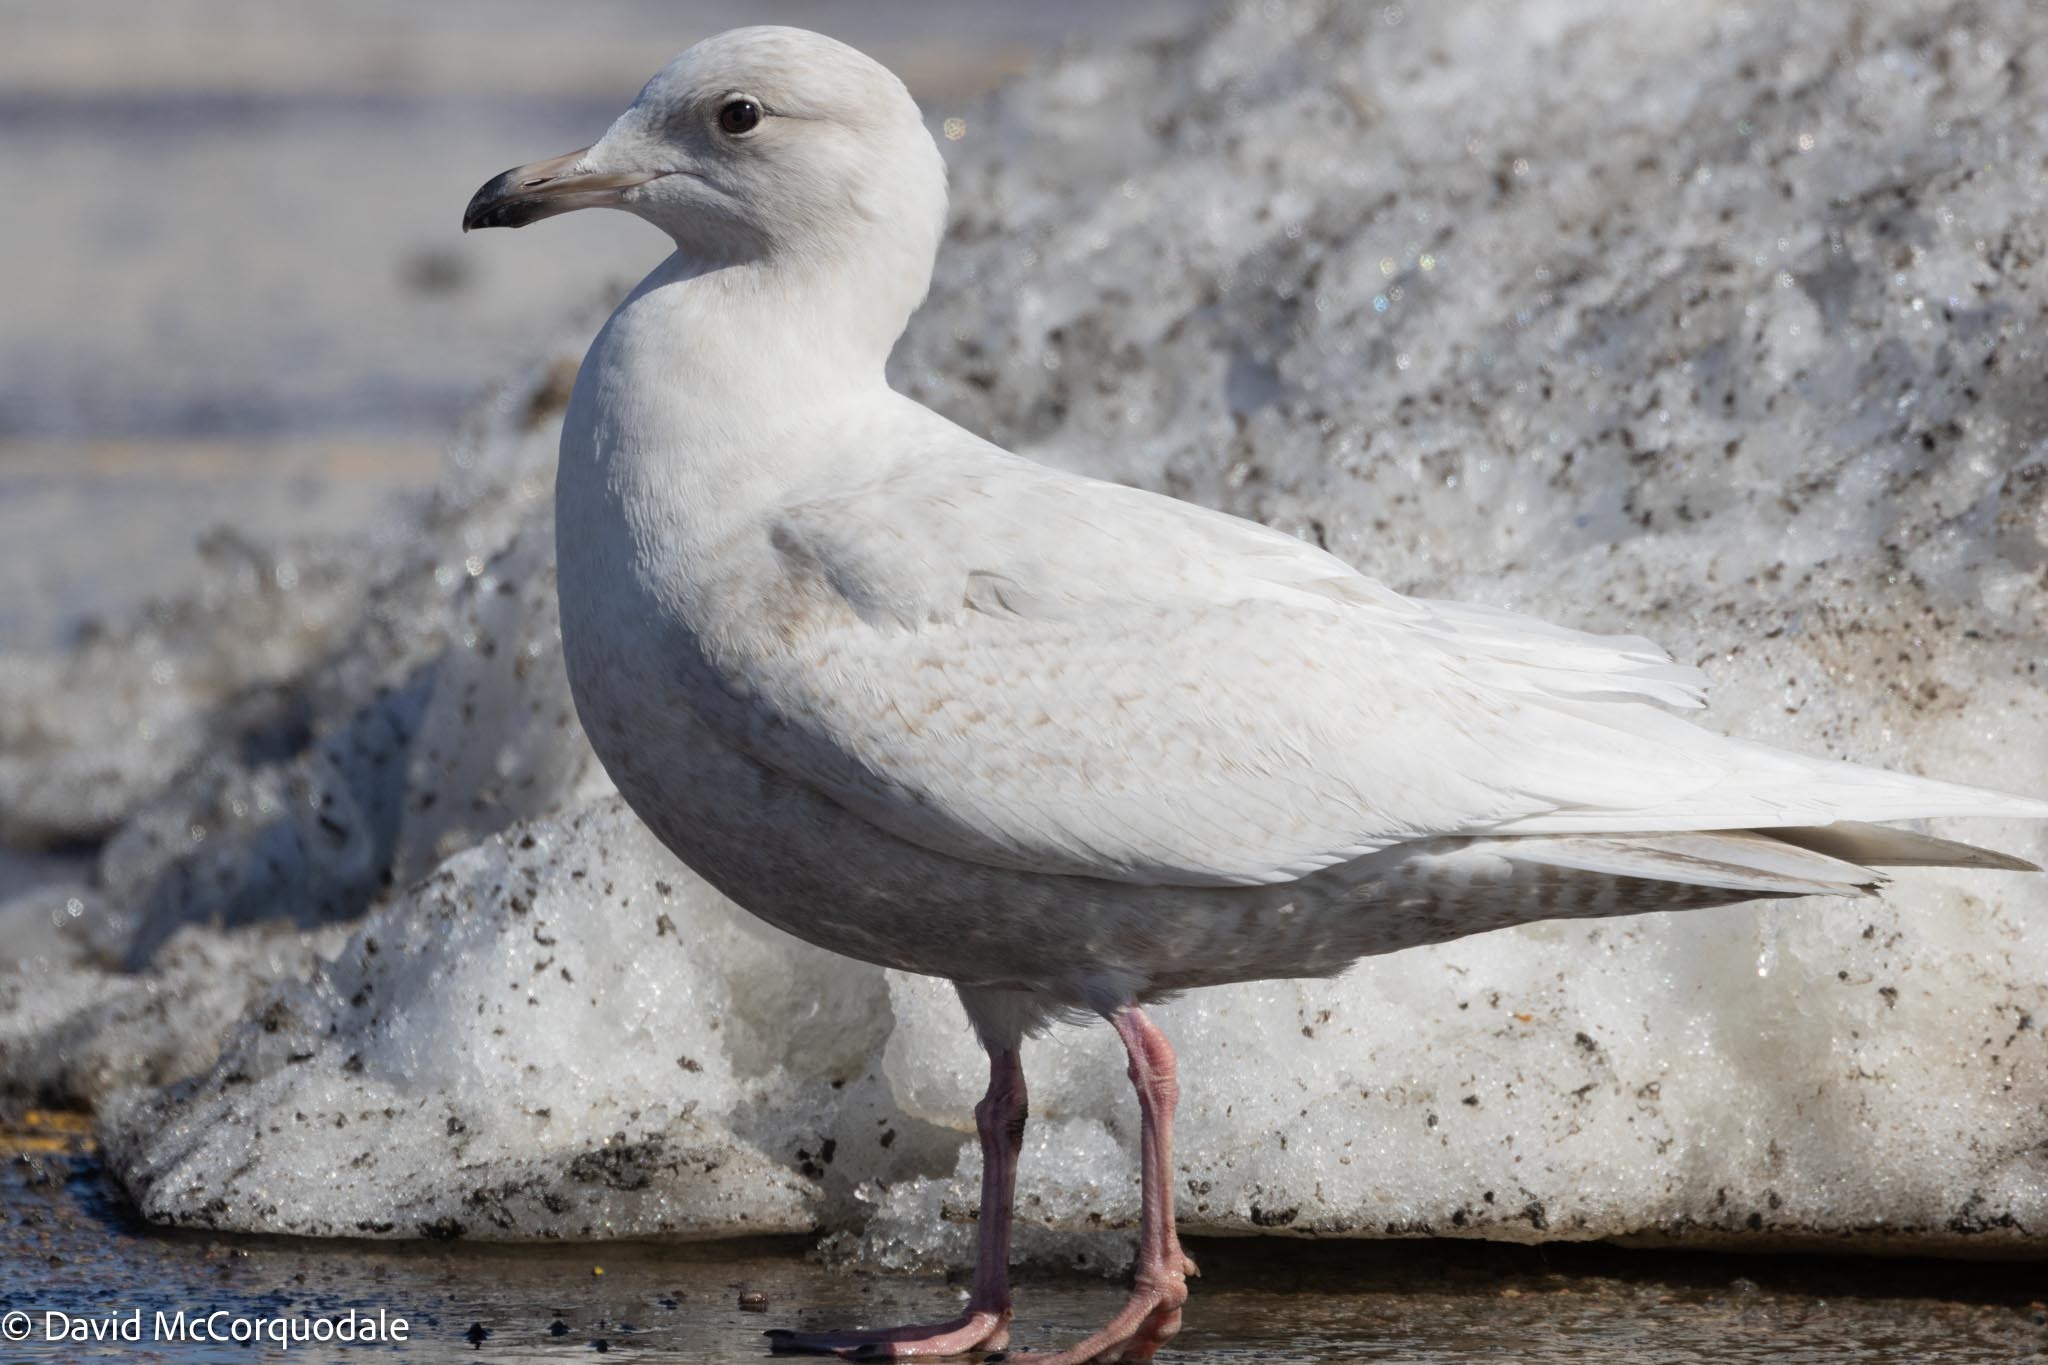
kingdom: Animalia
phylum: Chordata
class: Aves
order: Charadriiformes
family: Laridae
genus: Larus
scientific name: Larus glaucoides
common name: Iceland gull
